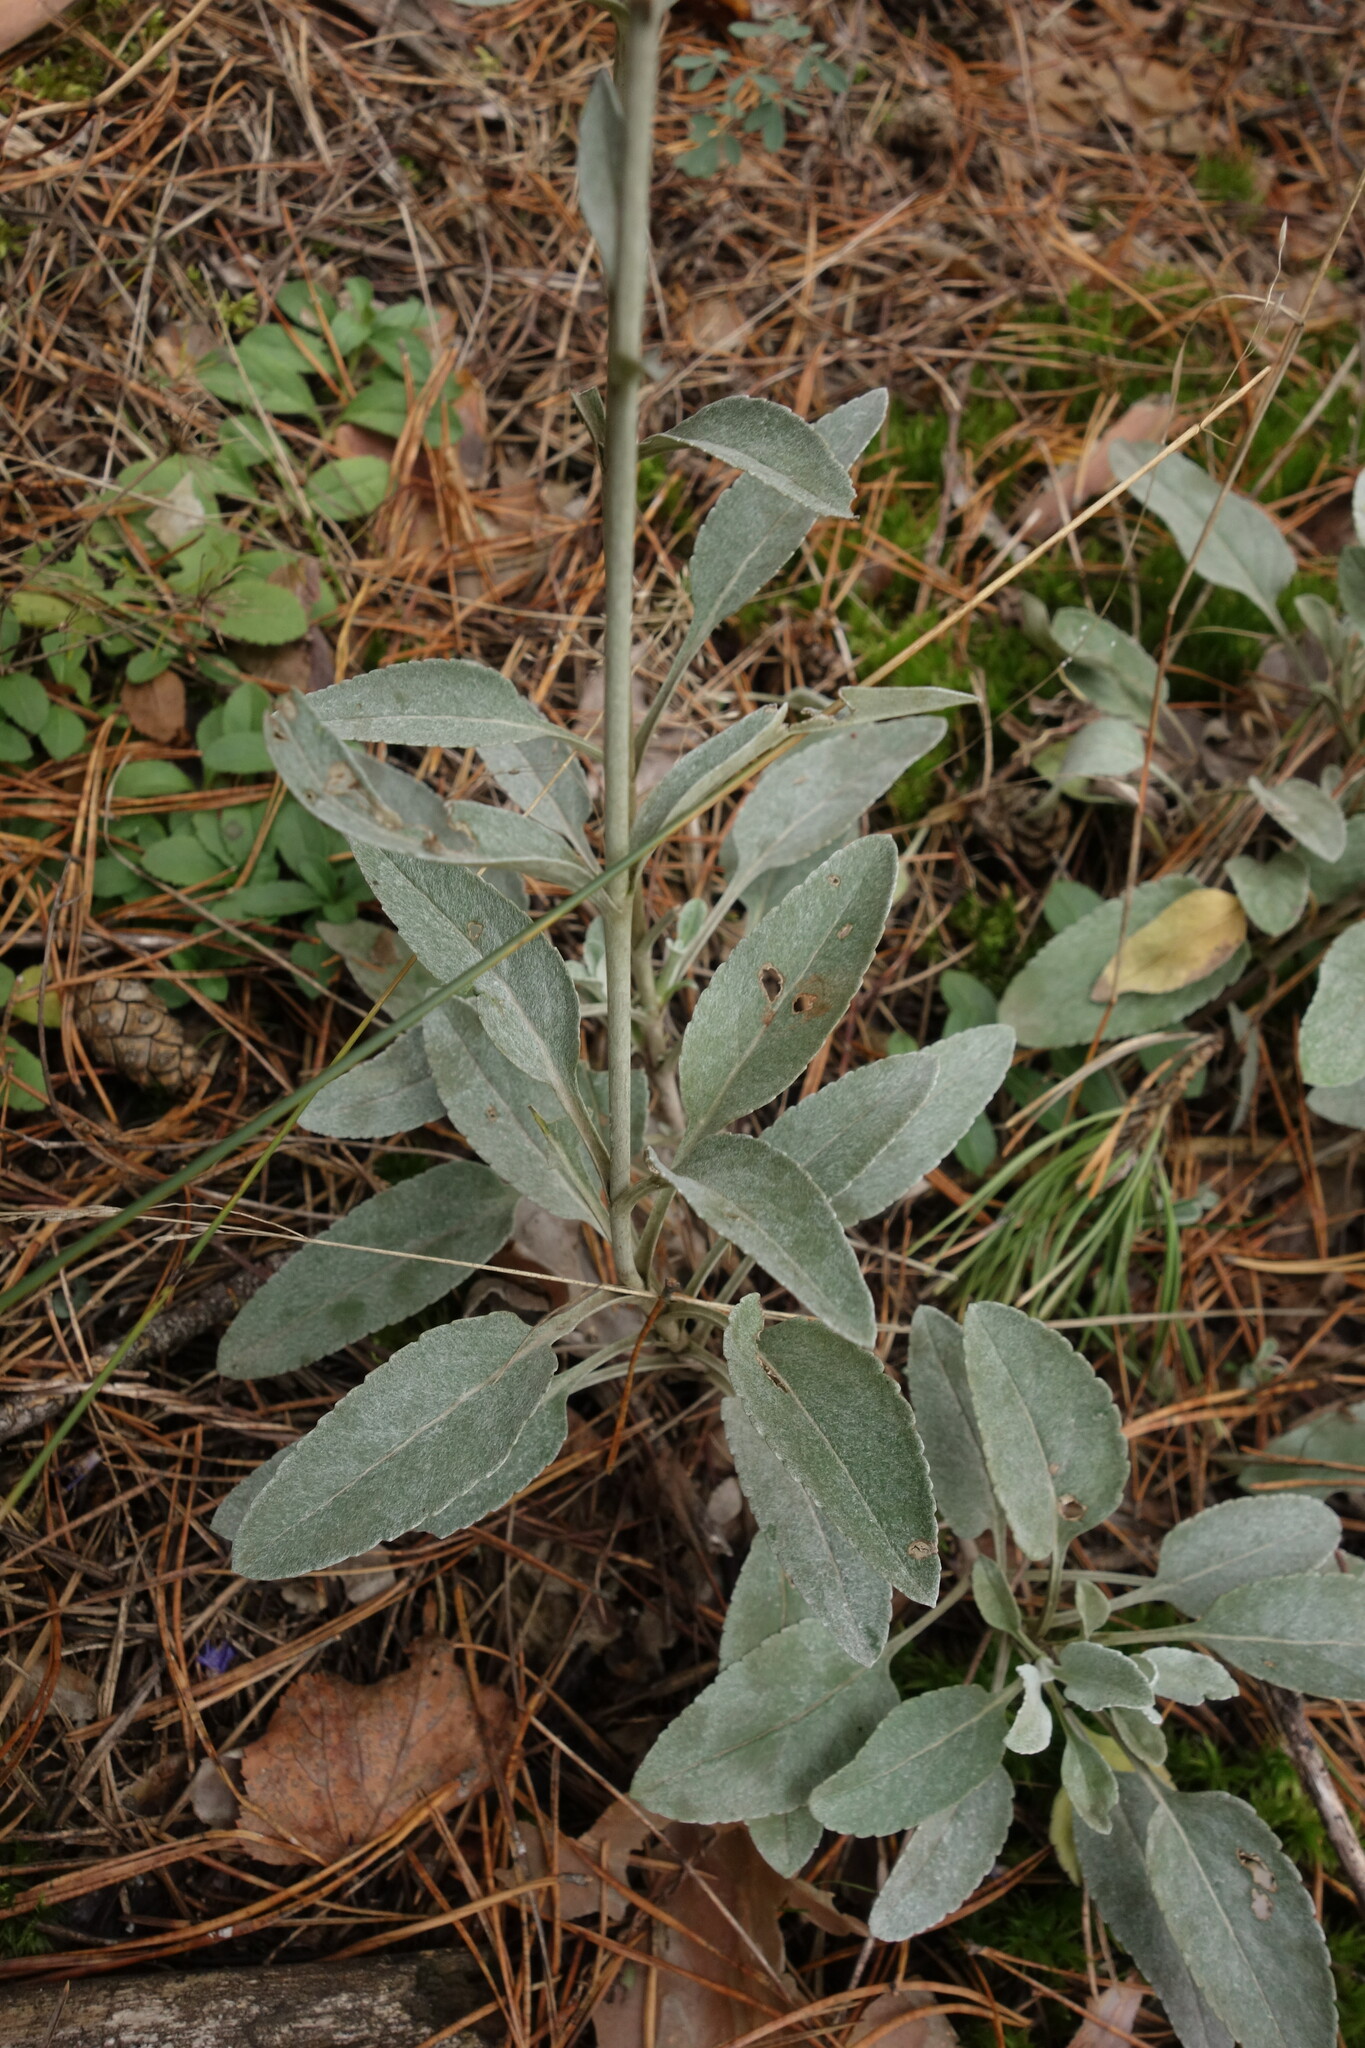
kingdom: Plantae
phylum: Tracheophyta
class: Magnoliopsida
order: Lamiales
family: Plantaginaceae
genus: Veronica
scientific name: Veronica incana
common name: Silver speedwell
